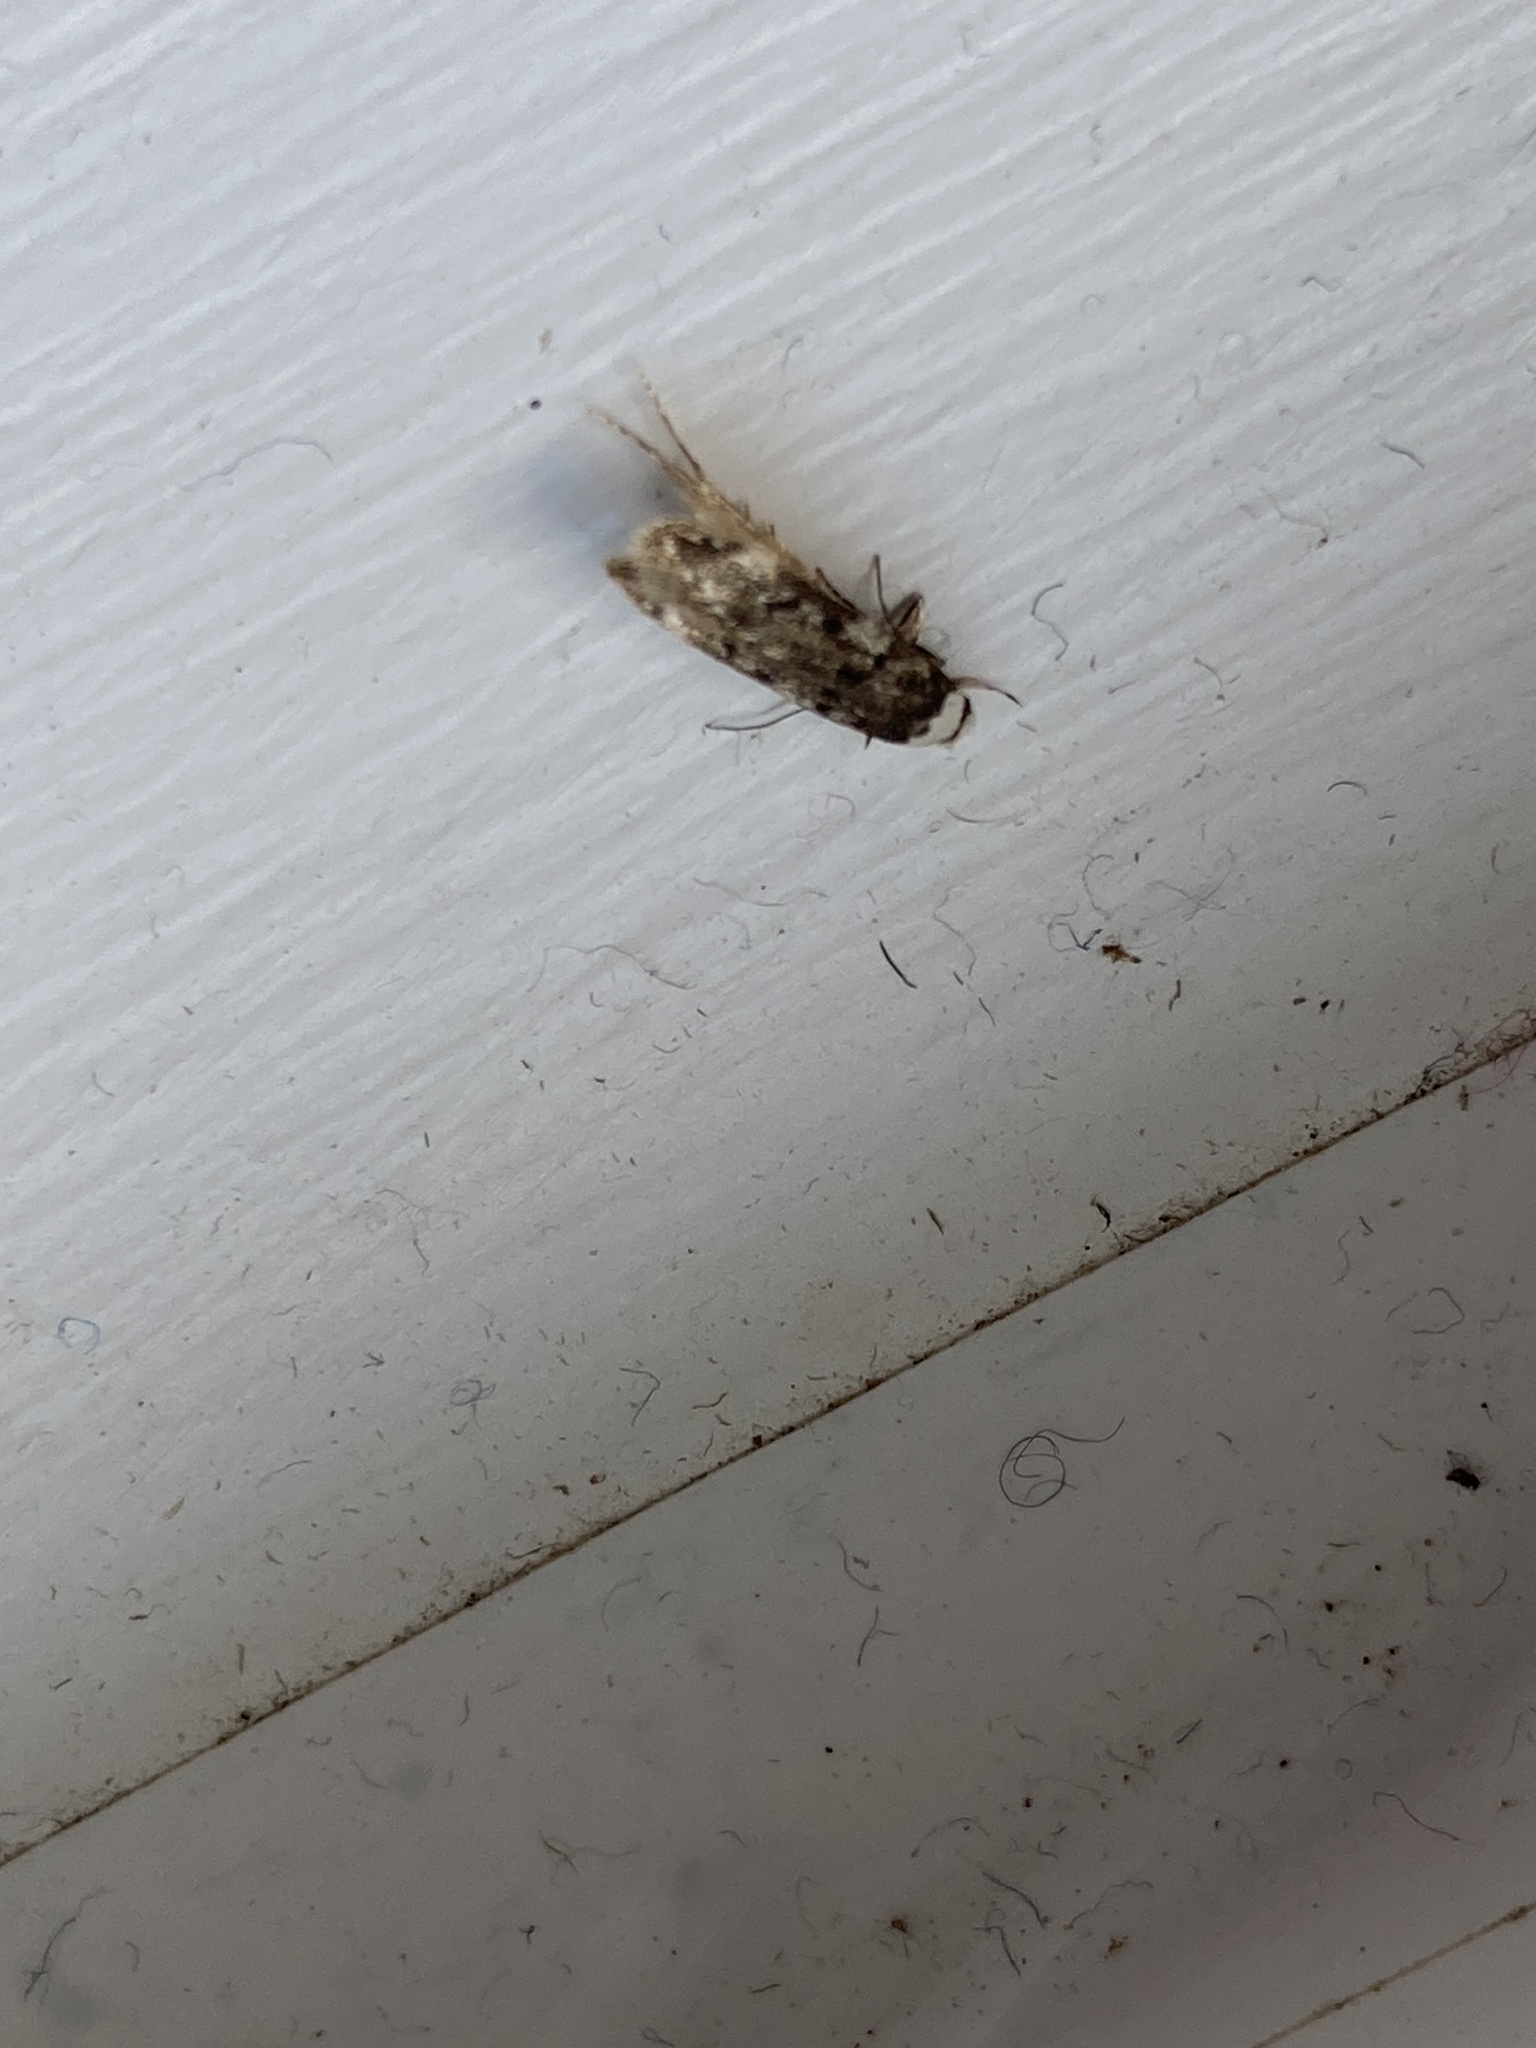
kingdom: Animalia
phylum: Arthropoda
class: Insecta
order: Lepidoptera
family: Oecophoridae
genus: Endrosis
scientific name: Endrosis sarcitrella
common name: White-shouldered house moth
